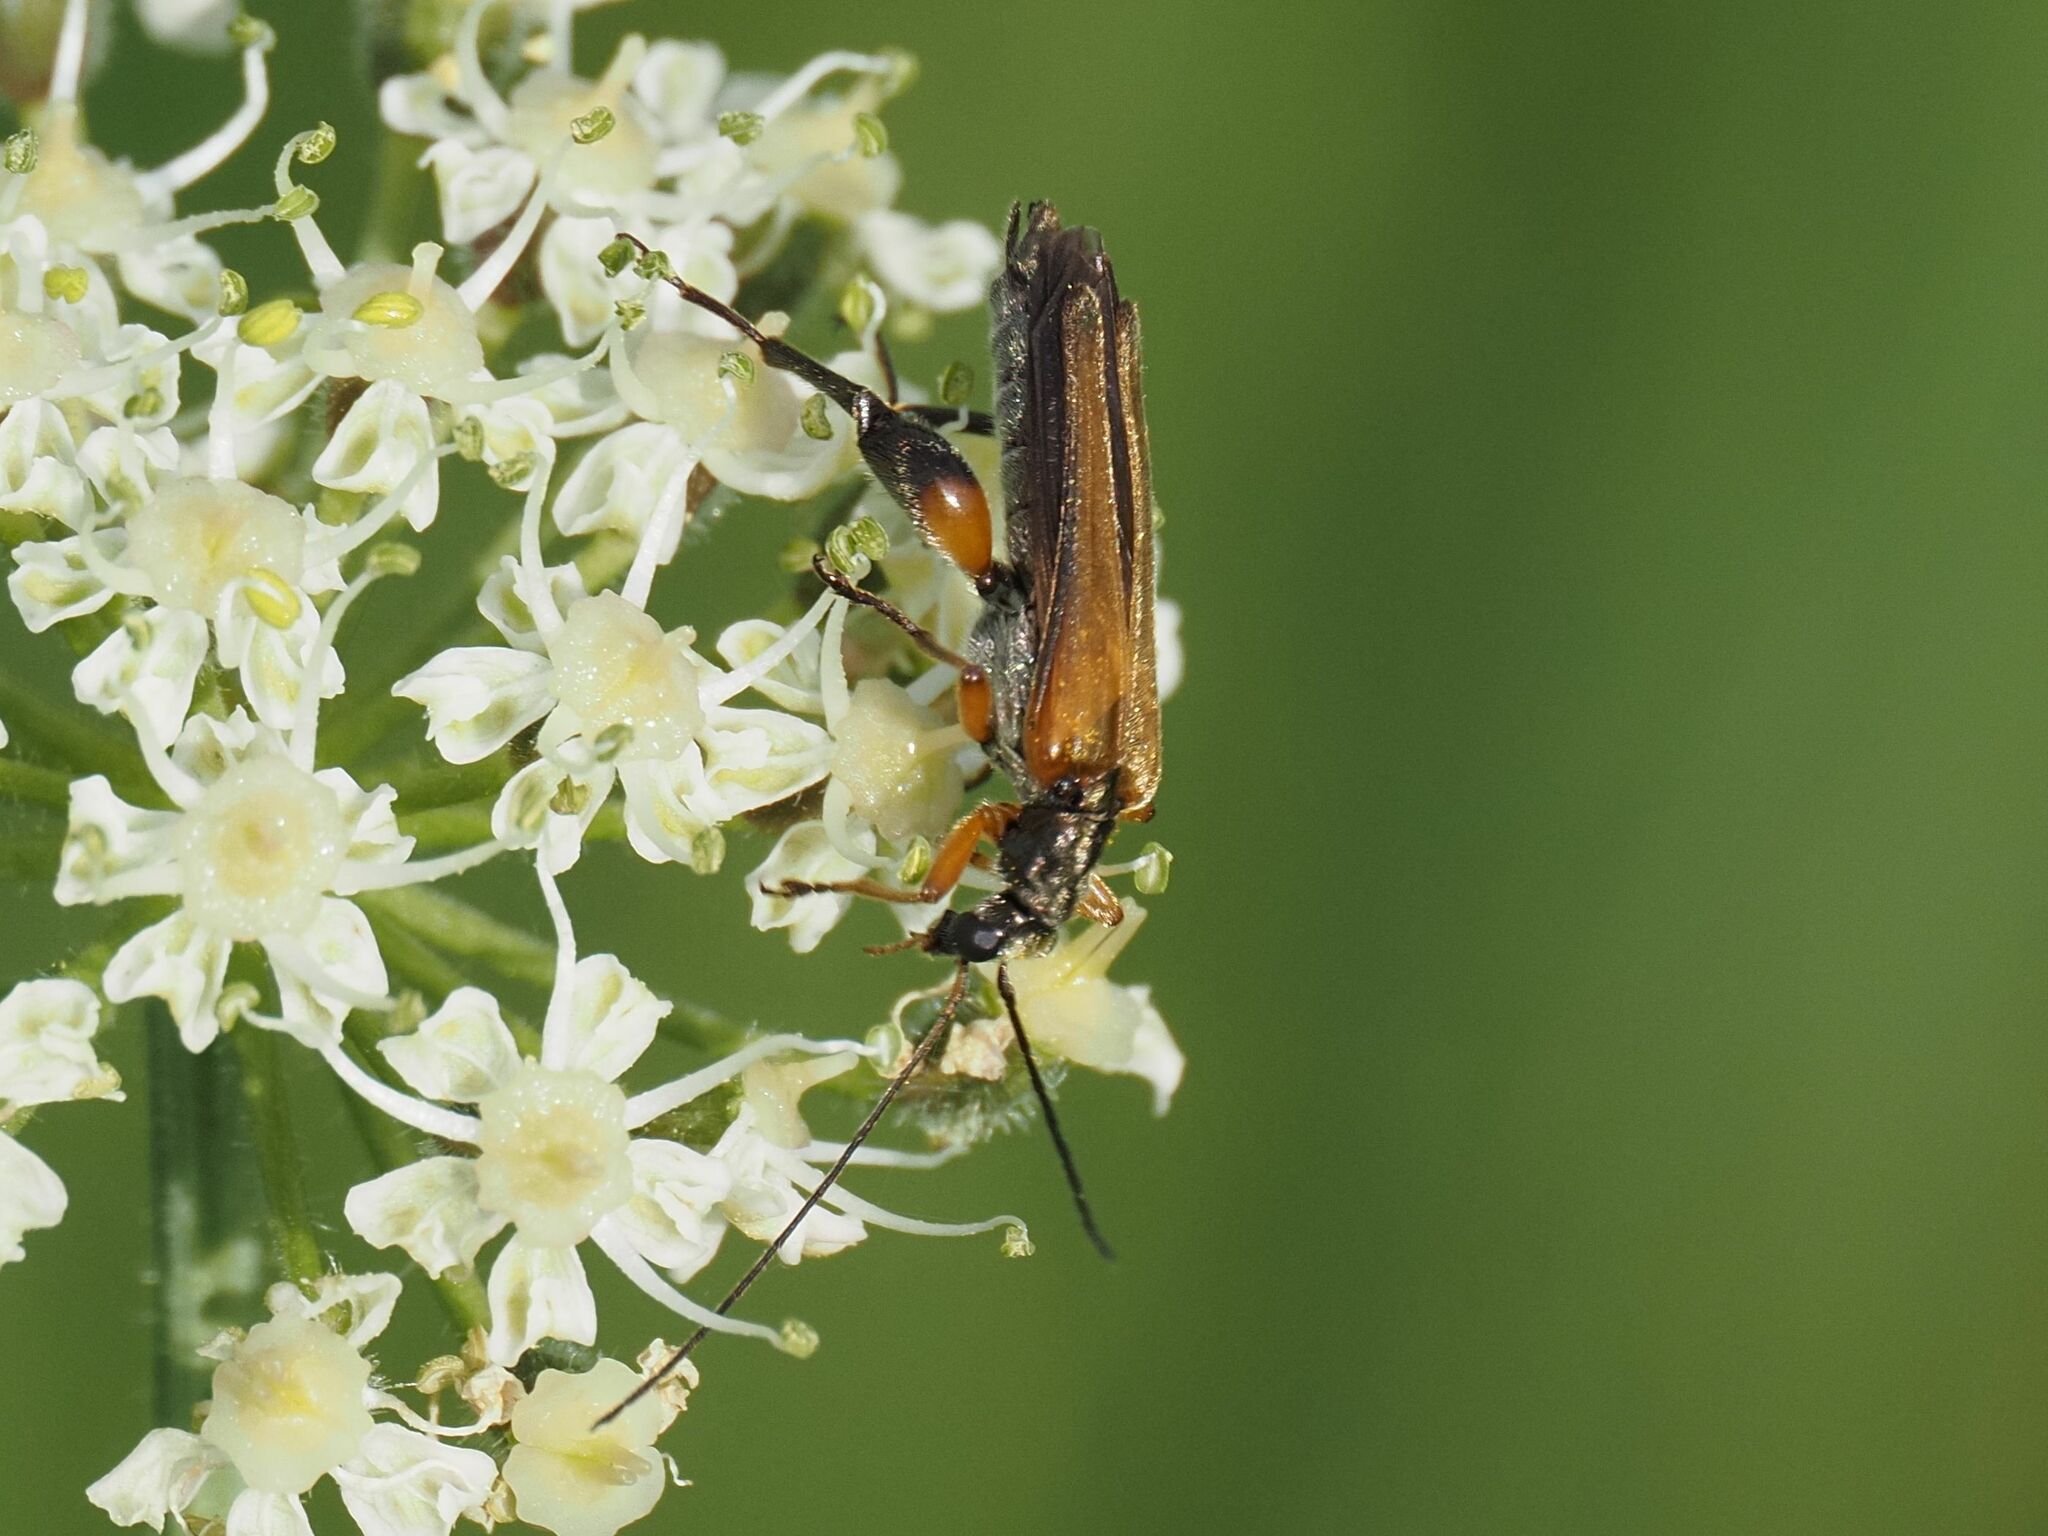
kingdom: Animalia
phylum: Arthropoda
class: Insecta
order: Coleoptera
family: Oedemeridae
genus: Oedemera
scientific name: Oedemera podagrariae
